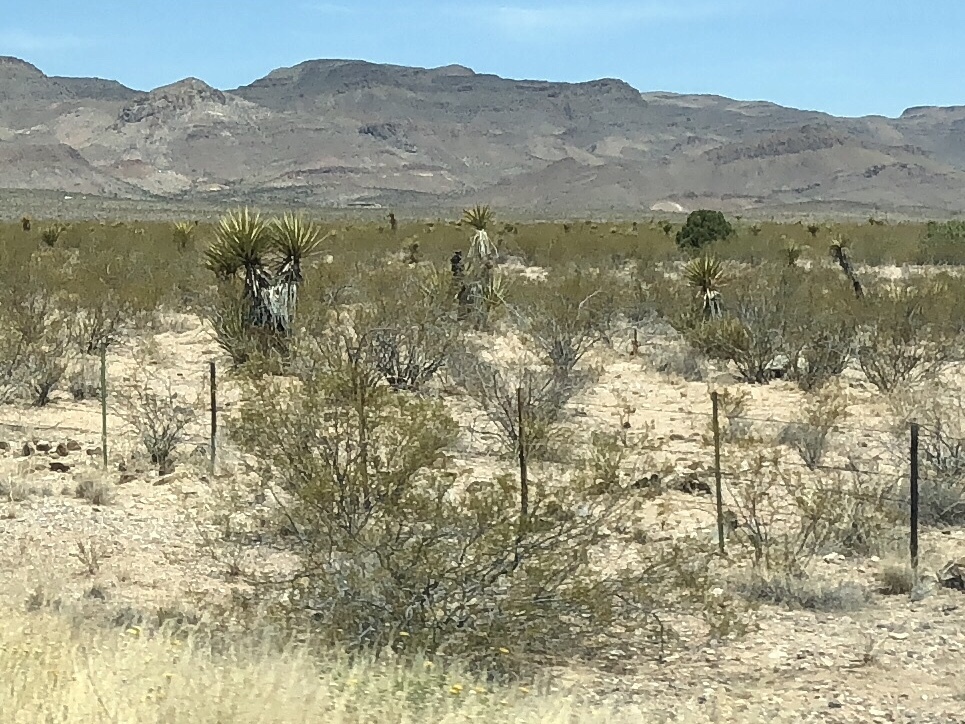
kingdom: Plantae
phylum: Tracheophyta
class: Magnoliopsida
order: Zygophyllales
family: Zygophyllaceae
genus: Larrea
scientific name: Larrea tridentata
